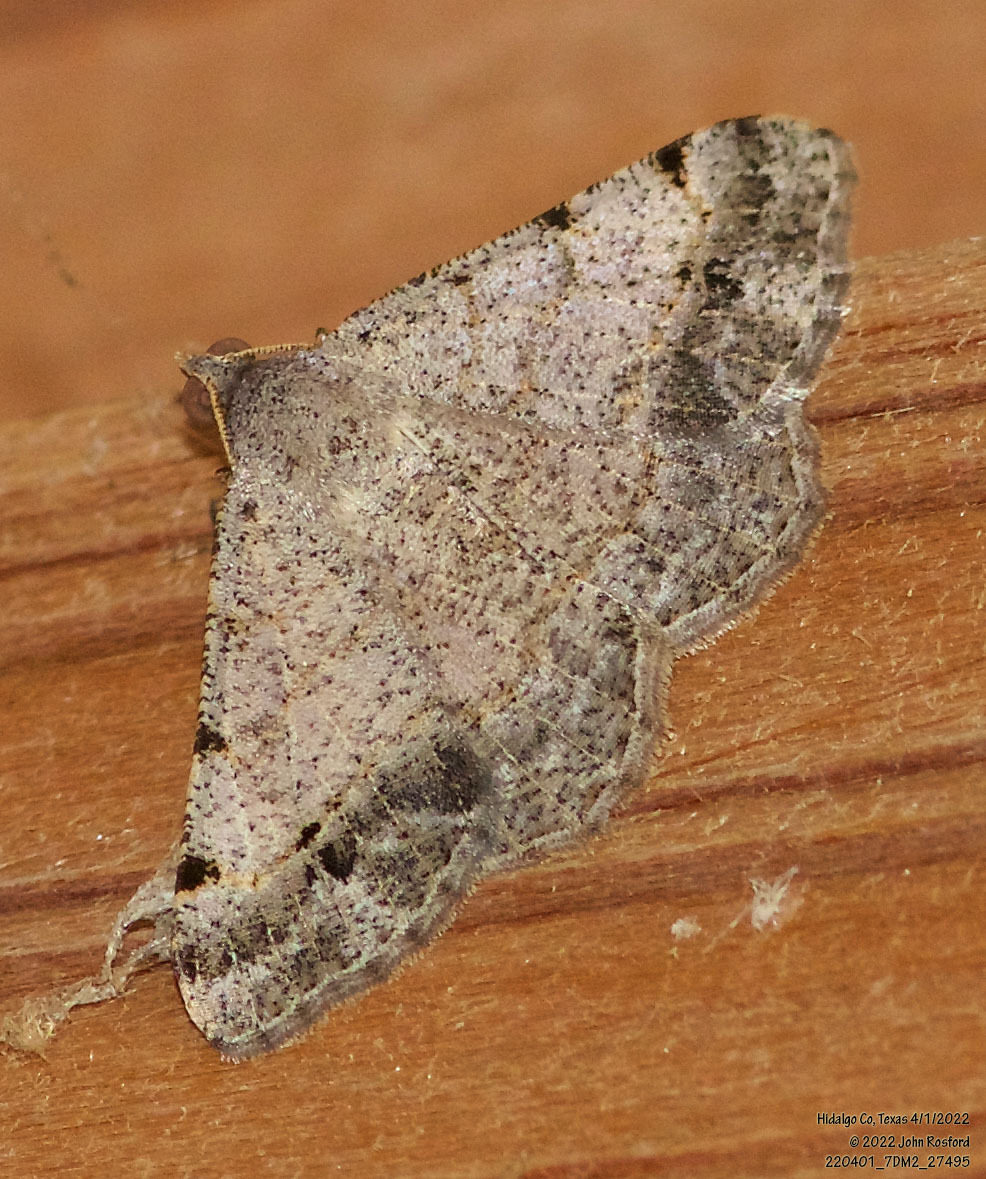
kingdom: Animalia
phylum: Arthropoda
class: Insecta
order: Lepidoptera
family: Geometridae
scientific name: Geometridae
